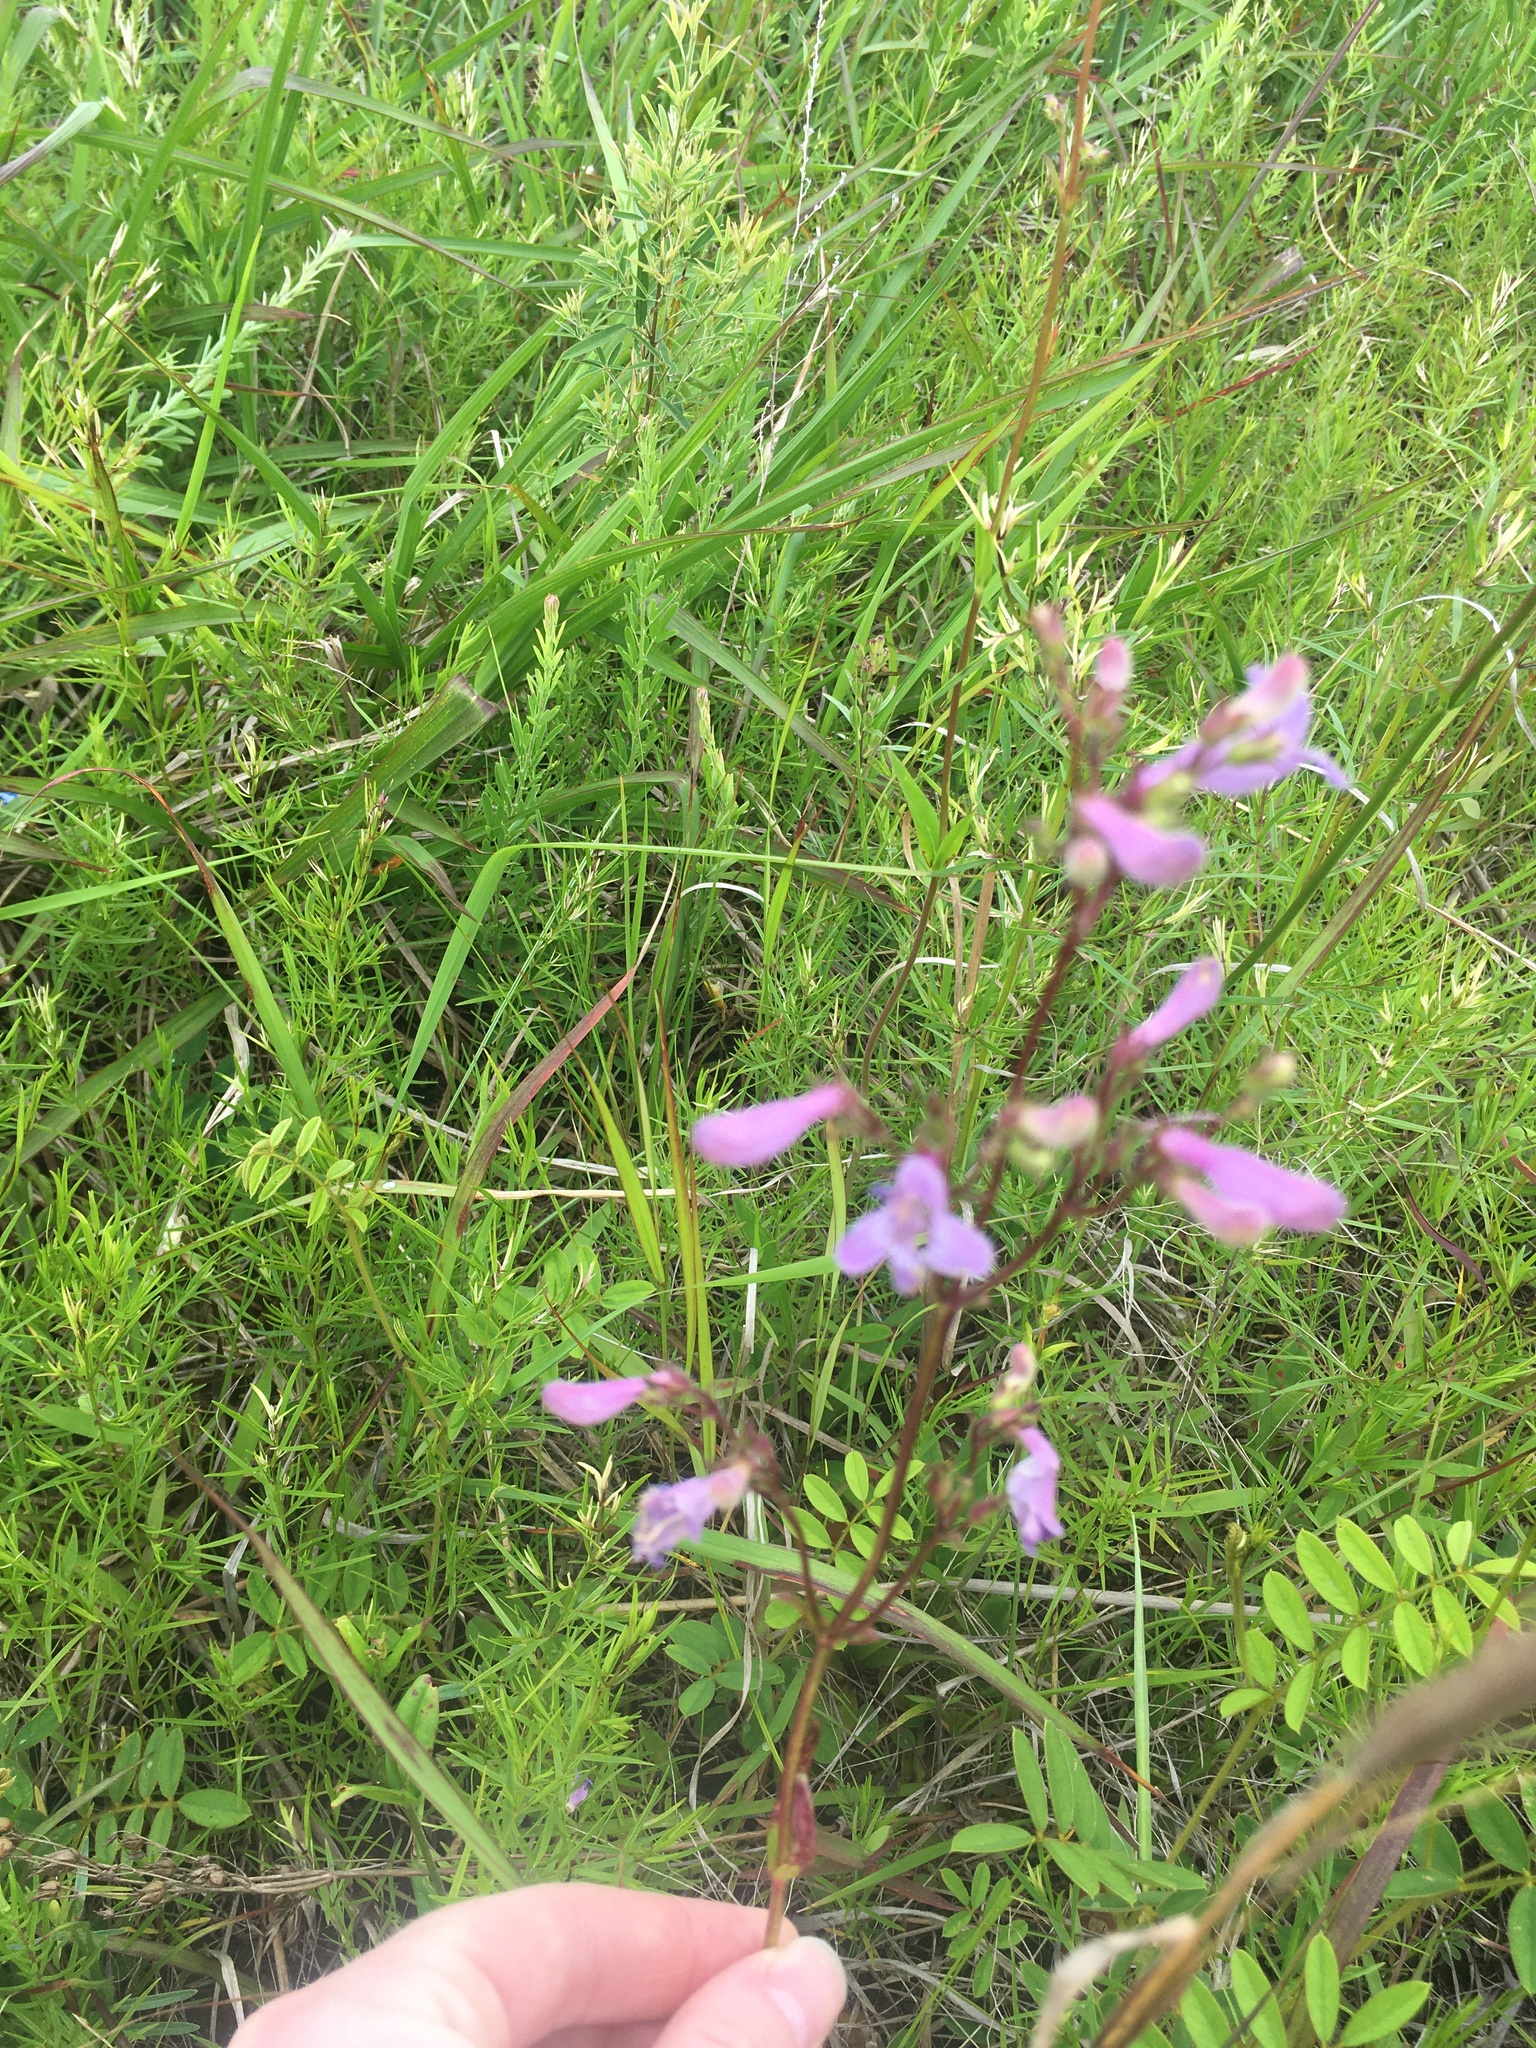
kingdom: Plantae
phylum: Tracheophyta
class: Magnoliopsida
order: Lamiales
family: Plantaginaceae
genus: Penstemon
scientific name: Penstemon laevigatus
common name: Eastern beardtongue
